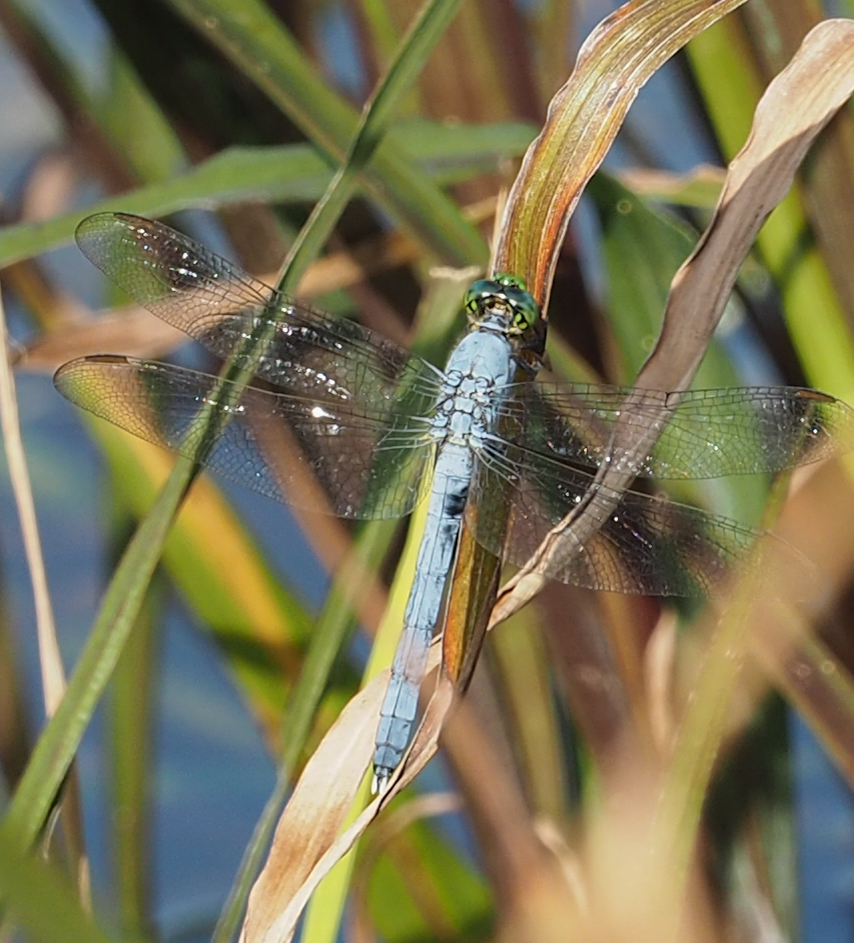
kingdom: Animalia
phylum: Arthropoda
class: Insecta
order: Odonata
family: Libellulidae
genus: Erythemis
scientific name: Erythemis simplicicollis
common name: Eastern pondhawk
